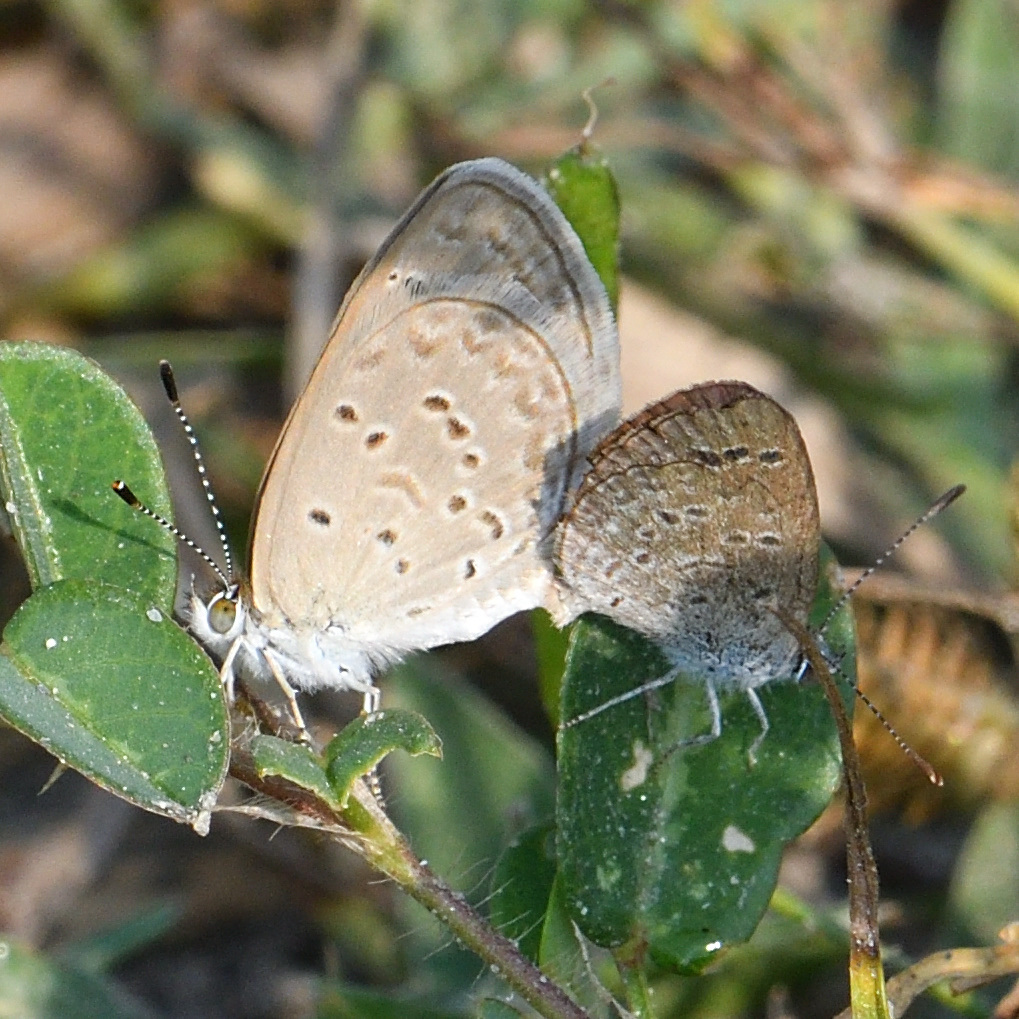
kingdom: Animalia
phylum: Arthropoda
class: Insecta
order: Lepidoptera
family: Lycaenidae
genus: Zizina
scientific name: Zizina otis
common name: Lesser grass blue
